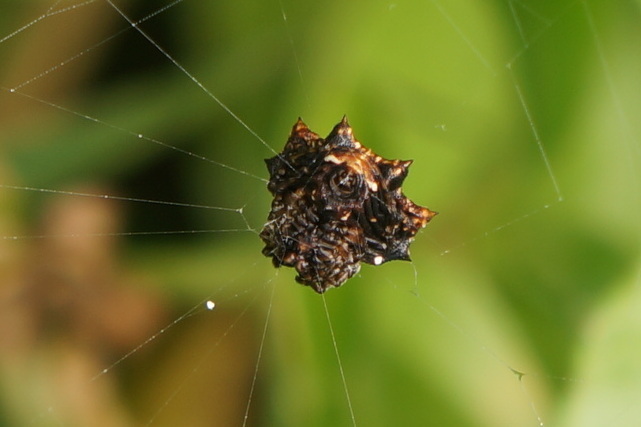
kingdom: Animalia
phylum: Arthropoda
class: Arachnida
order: Araneae
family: Araneidae
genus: Thelacantha
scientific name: Thelacantha brevispina
